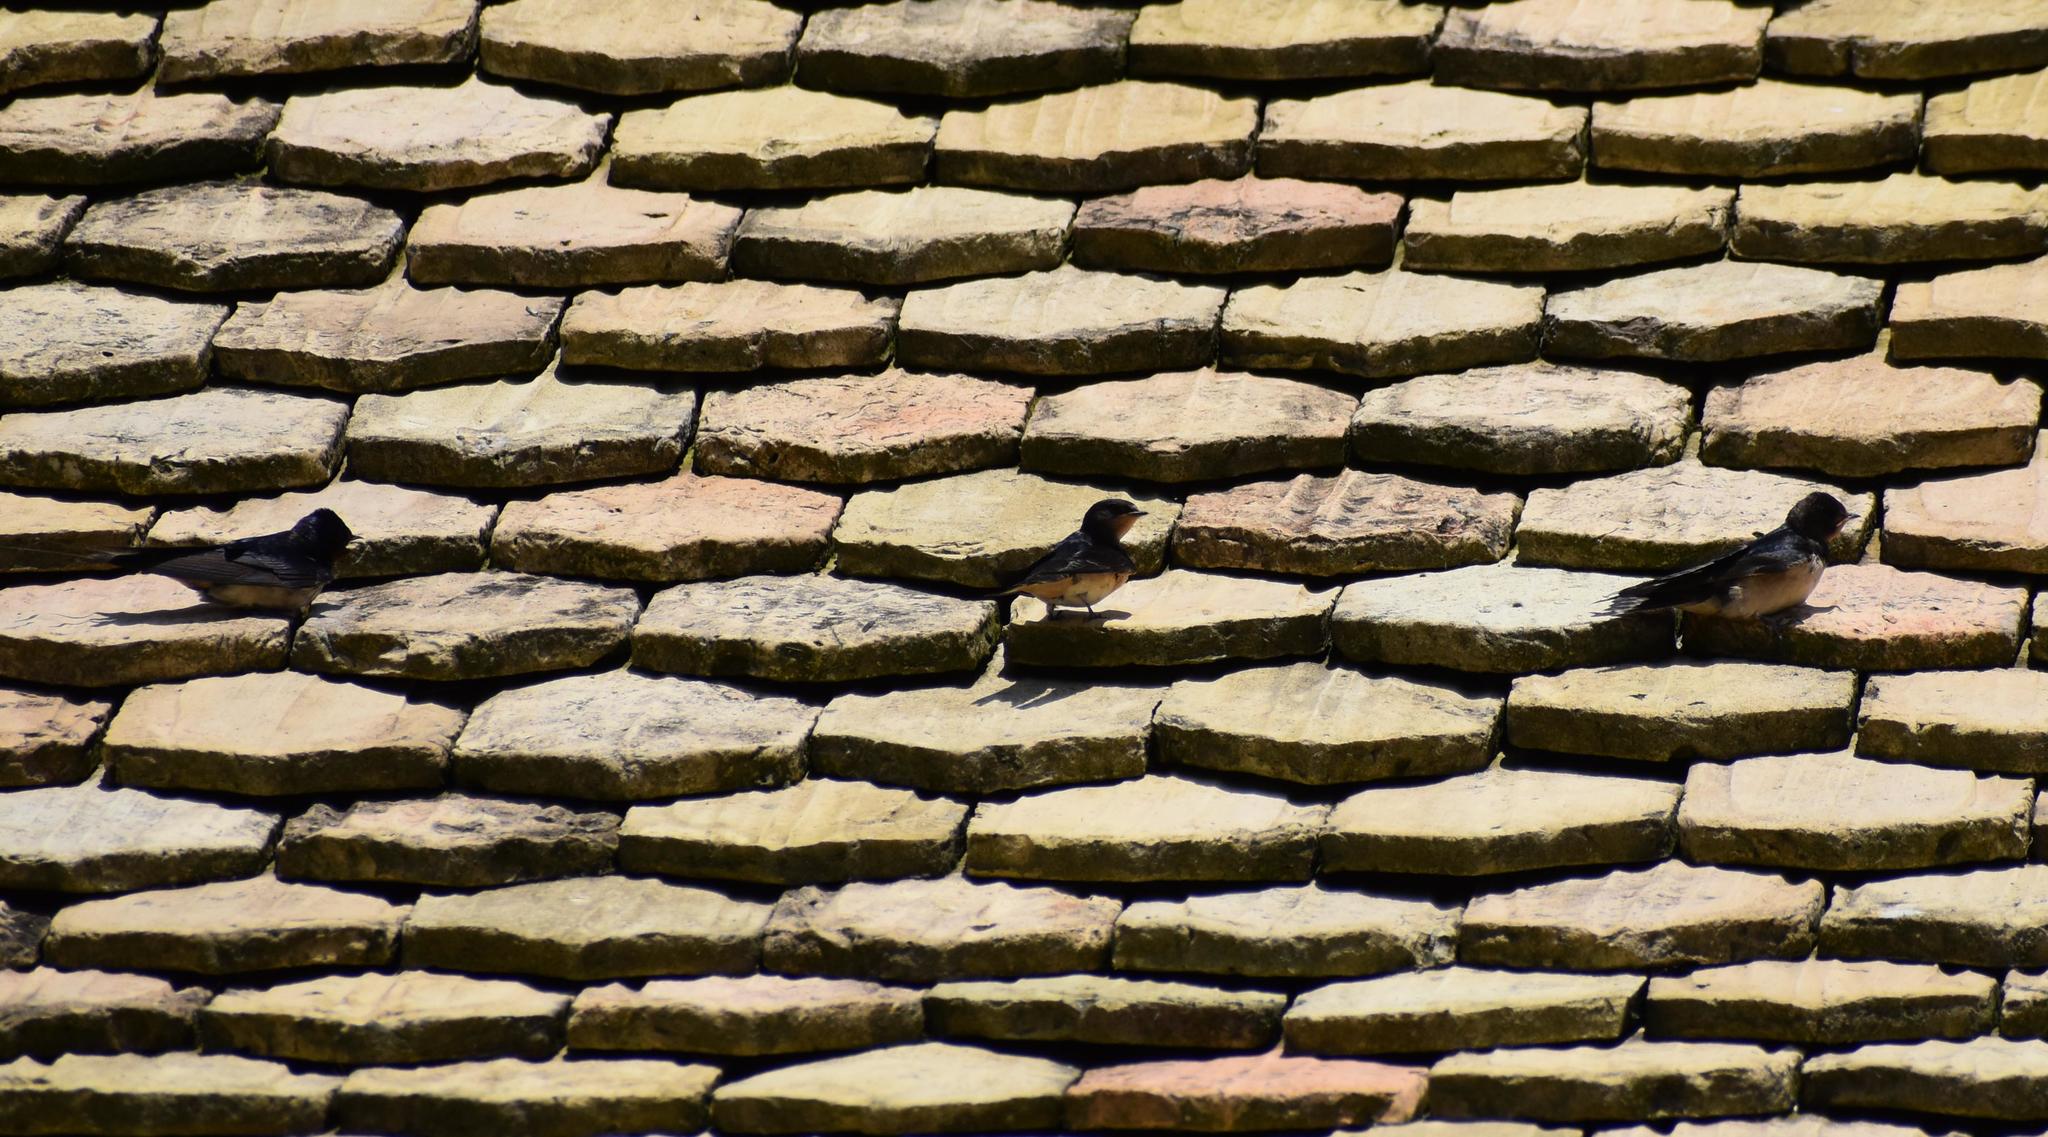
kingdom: Animalia
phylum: Chordata
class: Aves
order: Passeriformes
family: Hirundinidae
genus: Hirundo
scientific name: Hirundo rustica
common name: Barn swallow
